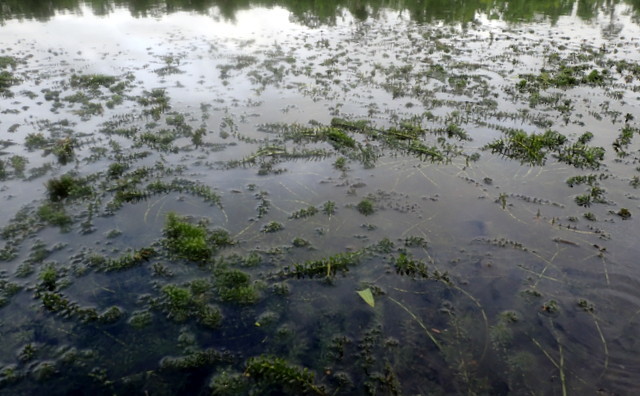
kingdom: Plantae
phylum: Tracheophyta
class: Liliopsida
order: Alismatales
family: Hydrocharitaceae
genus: Hydrilla
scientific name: Hydrilla verticillata
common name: Florida-elodea
